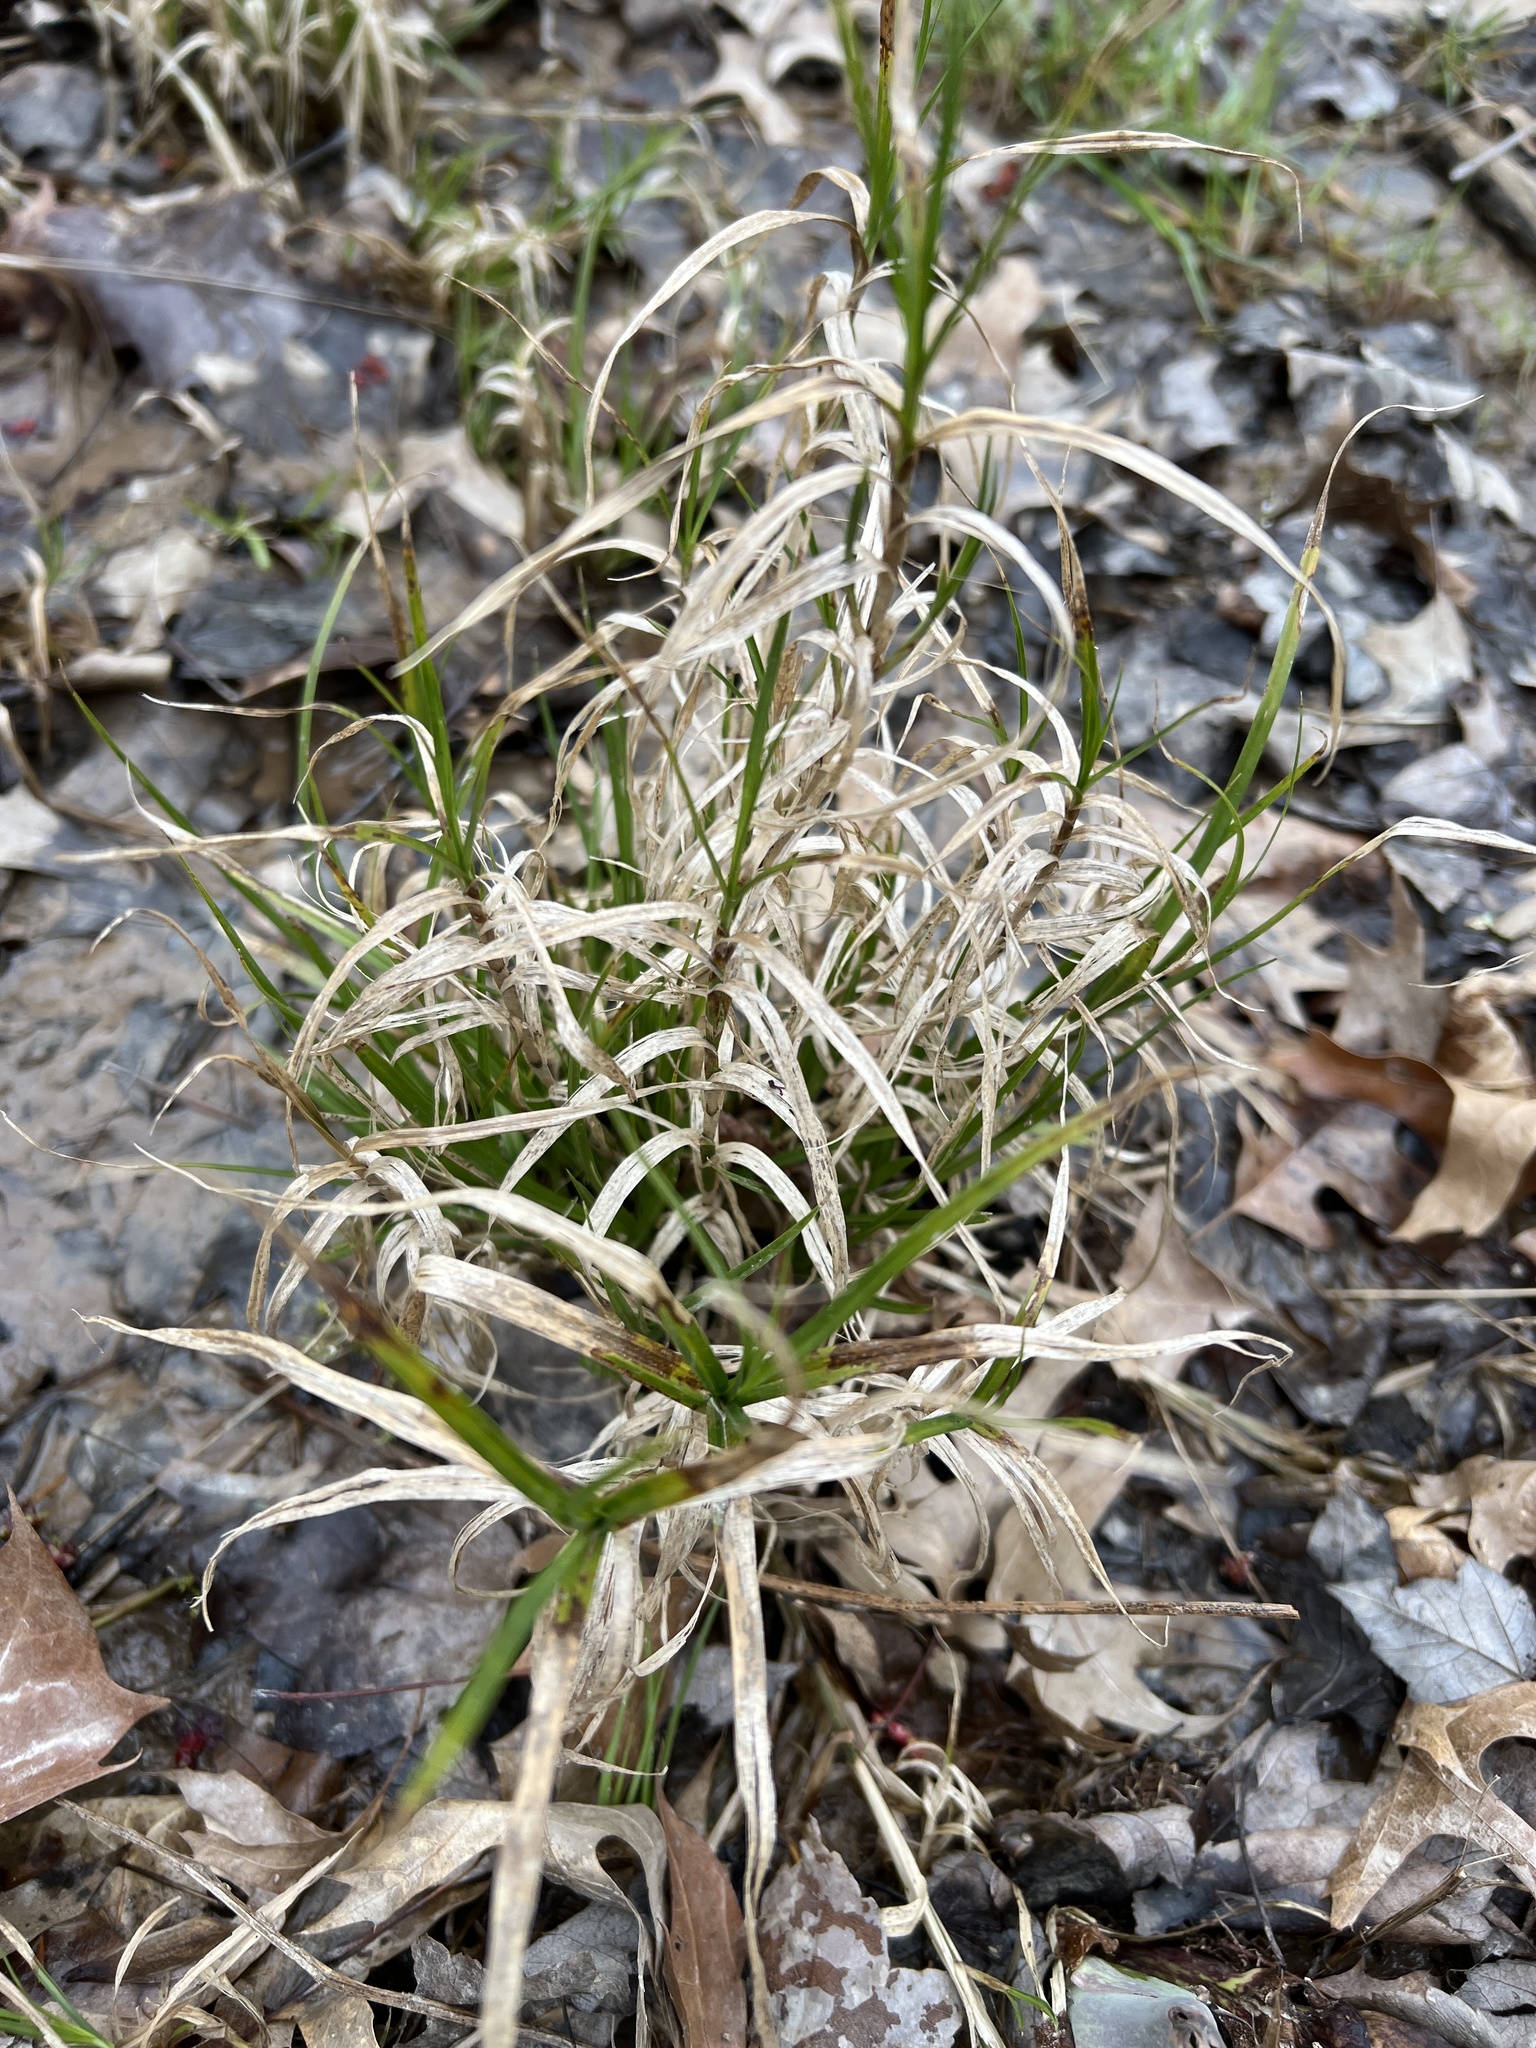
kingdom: Plantae
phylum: Tracheophyta
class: Liliopsida
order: Poales
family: Cyperaceae
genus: Dulichium
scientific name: Dulichium arundinaceum
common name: Three-way sedge
